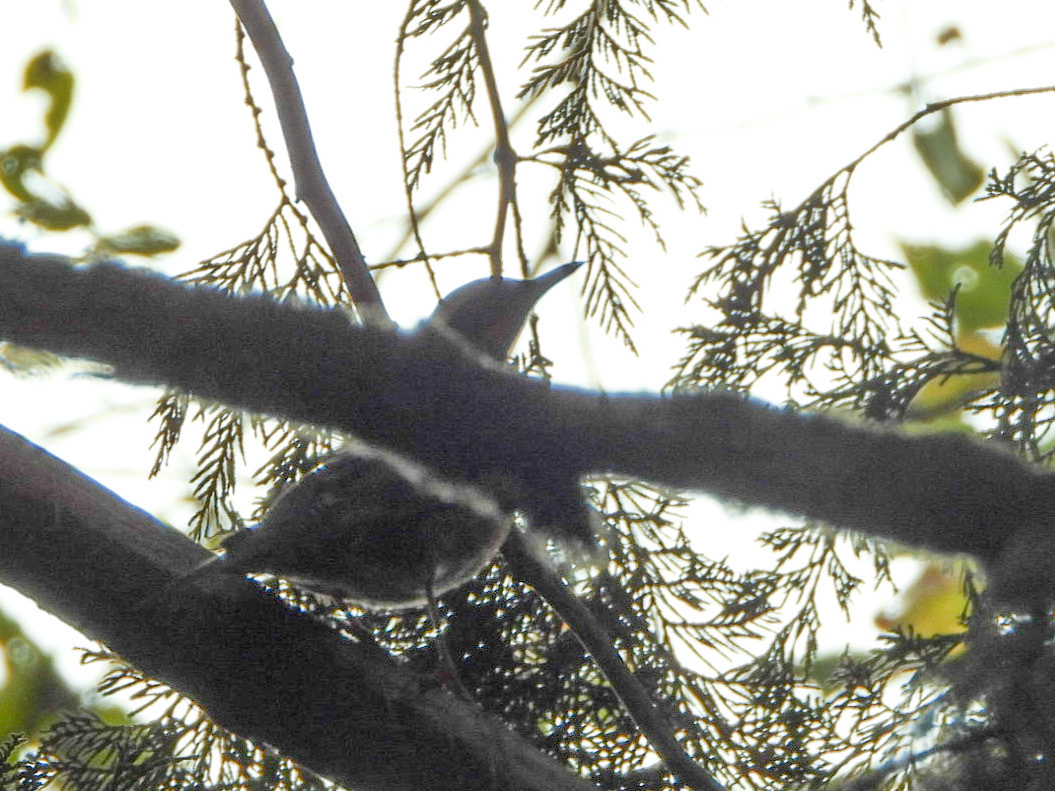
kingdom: Animalia
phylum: Chordata
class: Aves
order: Passeriformes
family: Turdidae
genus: Ixoreus
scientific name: Ixoreus naevius
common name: Varied thrush
